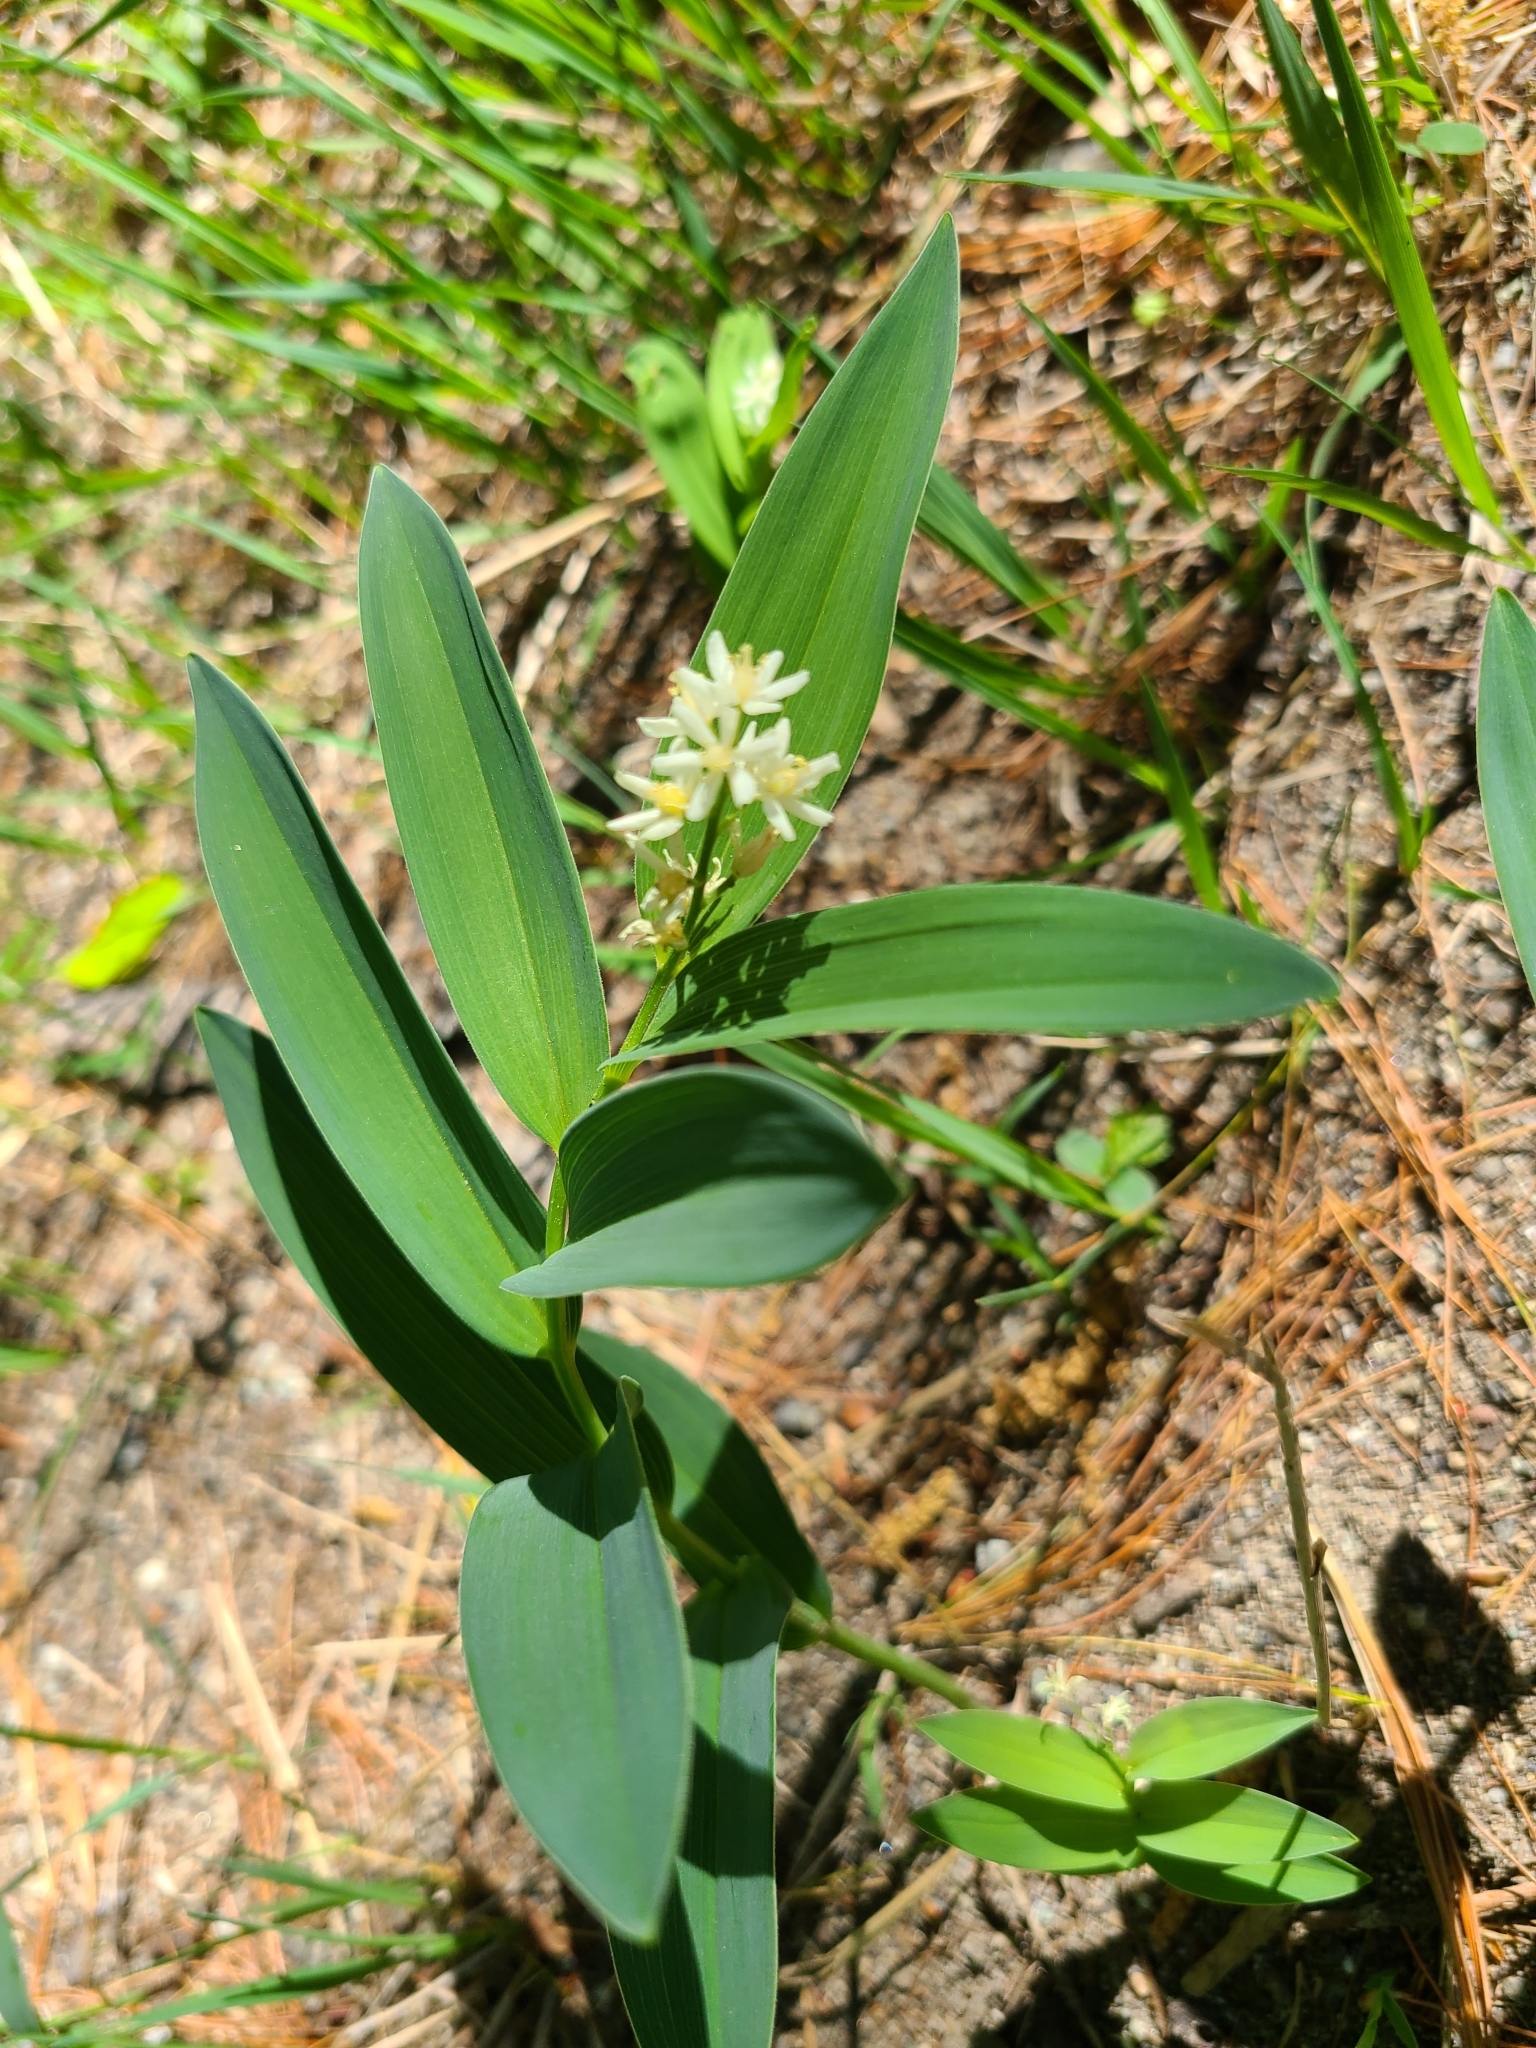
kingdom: Plantae
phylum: Tracheophyta
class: Liliopsida
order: Asparagales
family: Asparagaceae
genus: Maianthemum
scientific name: Maianthemum stellatum
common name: Little false solomon's seal
